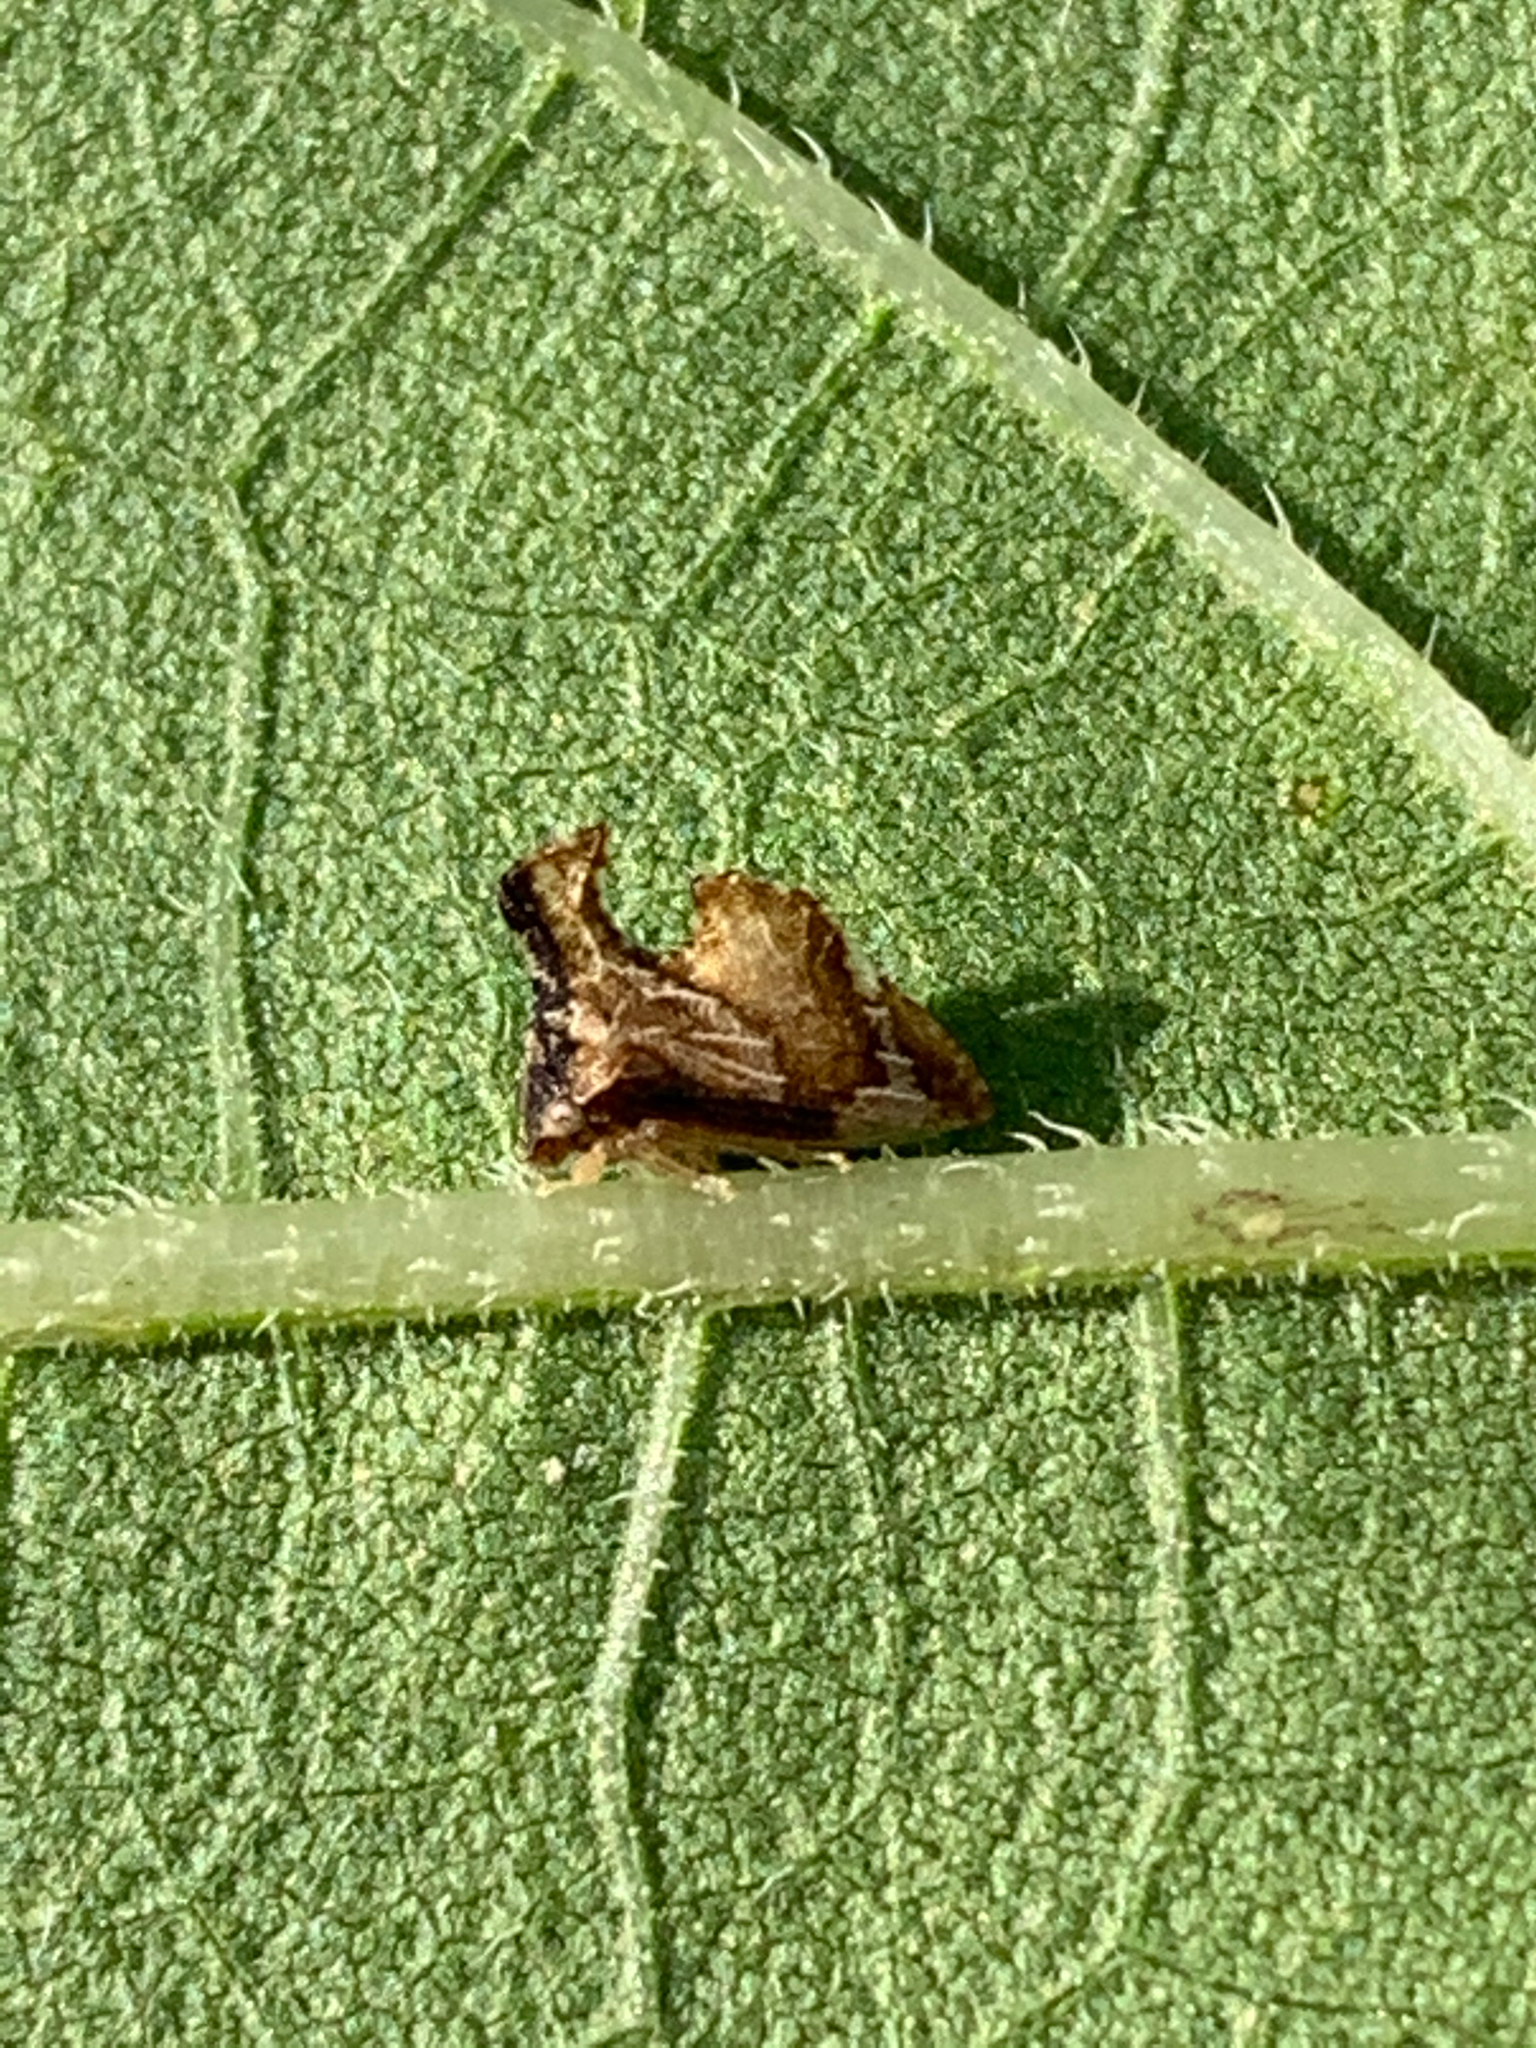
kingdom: Animalia
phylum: Arthropoda
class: Insecta
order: Hemiptera
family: Membracidae
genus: Entylia
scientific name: Entylia carinata
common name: Keeled treehopper
